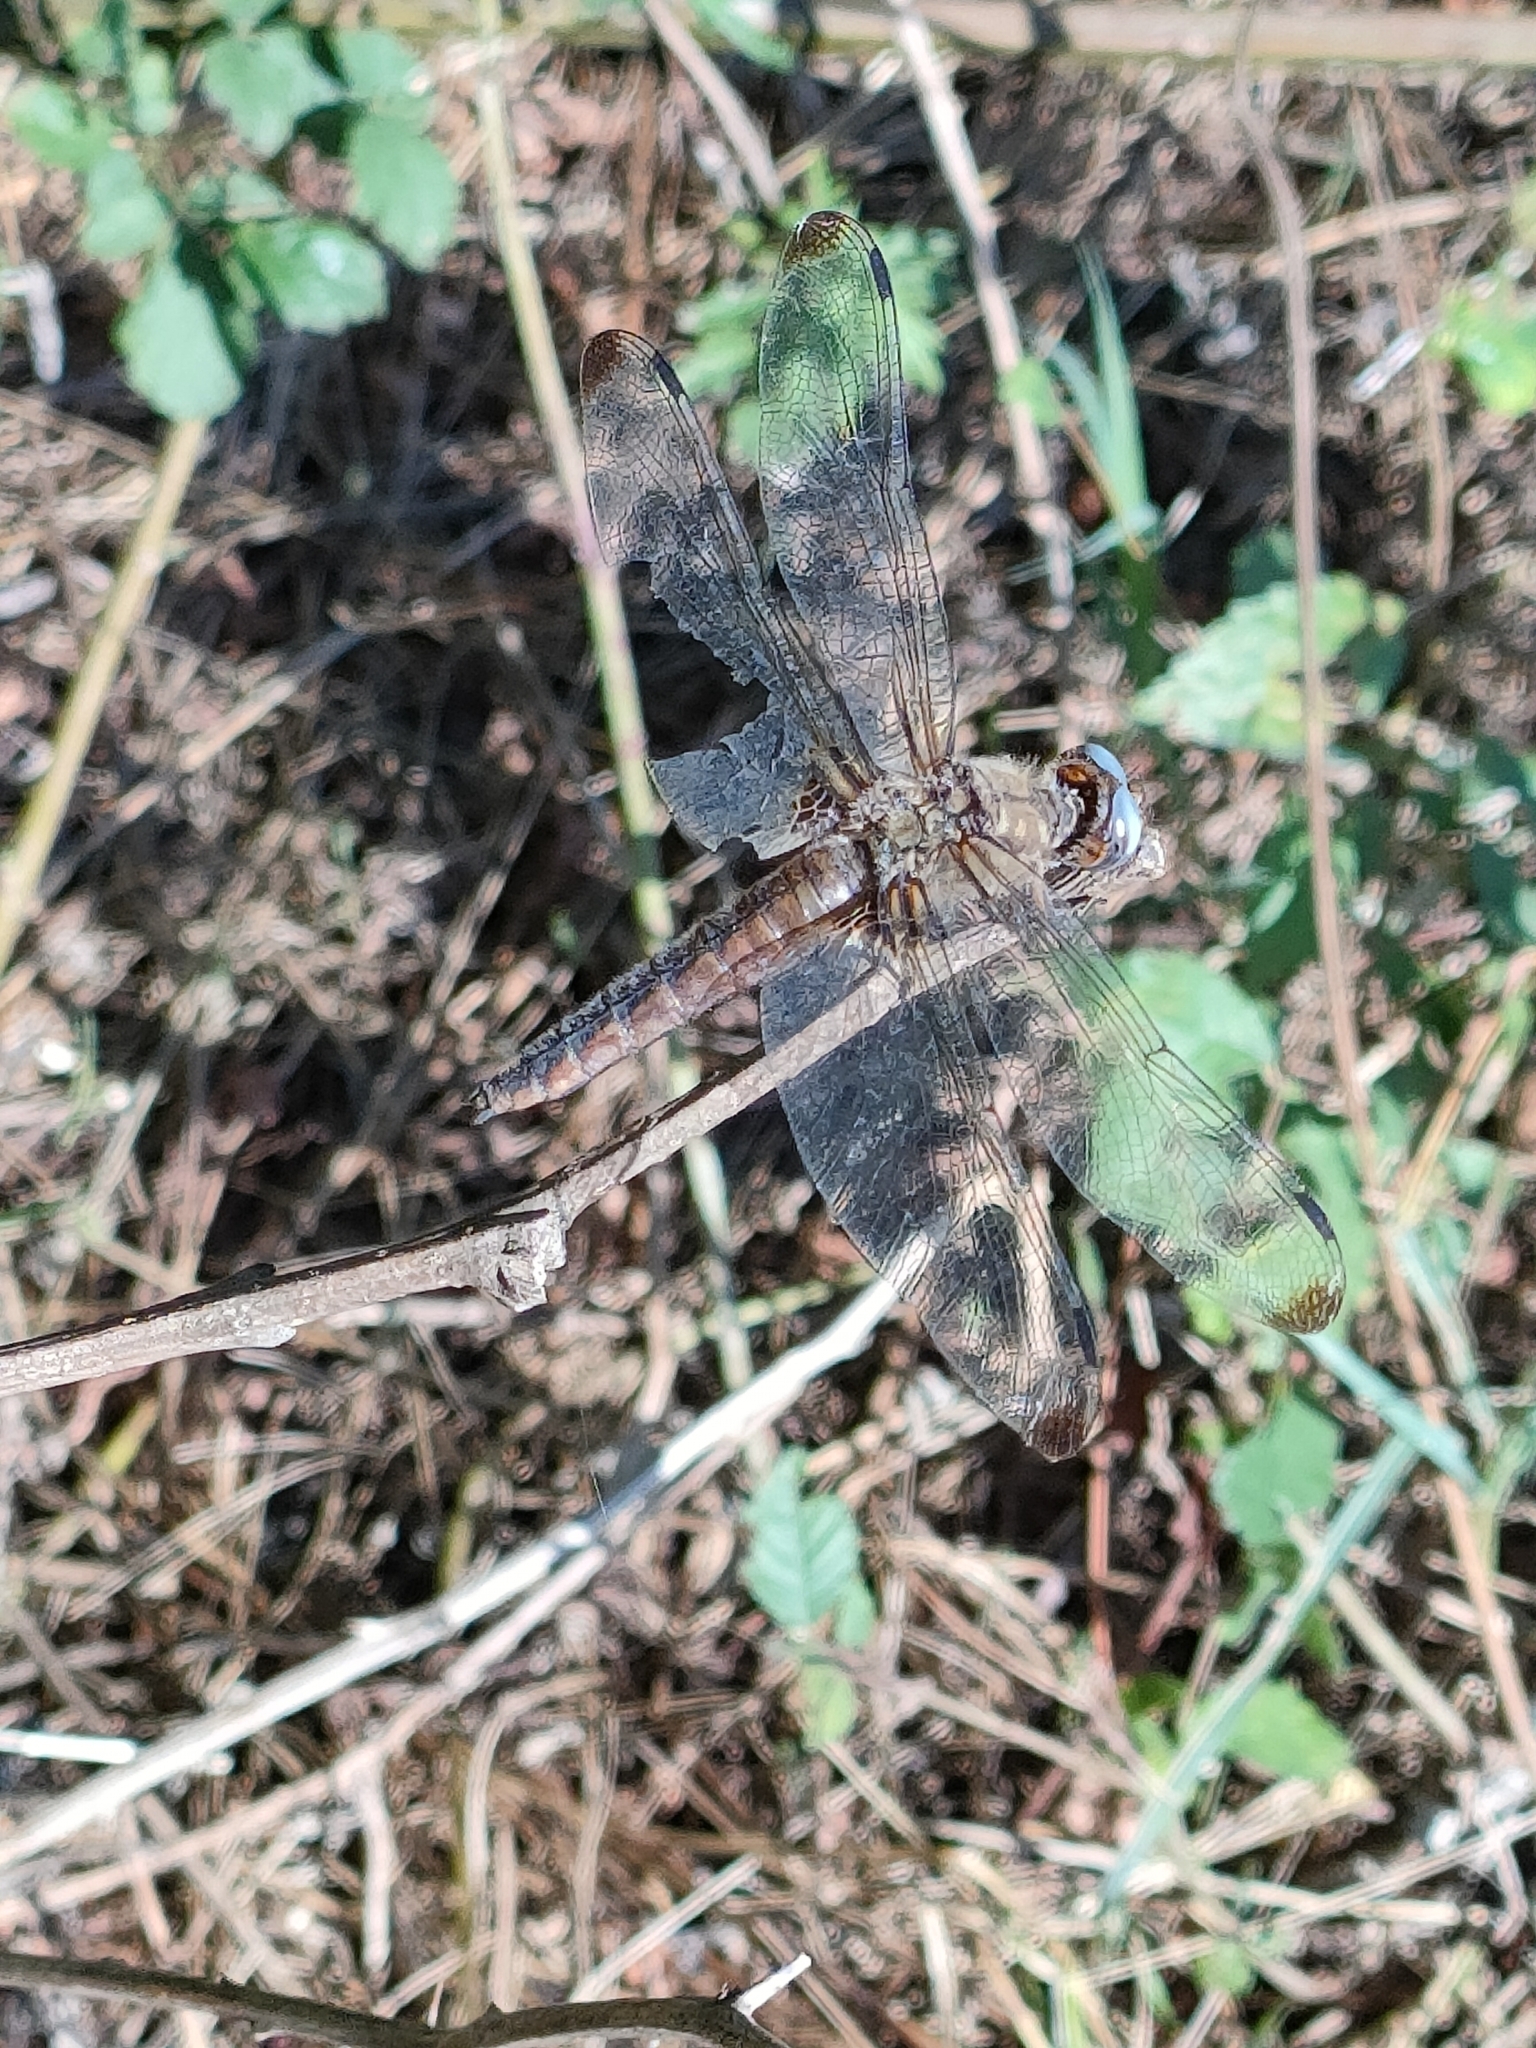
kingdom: Animalia
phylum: Arthropoda
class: Insecta
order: Odonata
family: Libellulidae
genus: Libellula
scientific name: Libellula fulva
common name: Blue chaser
